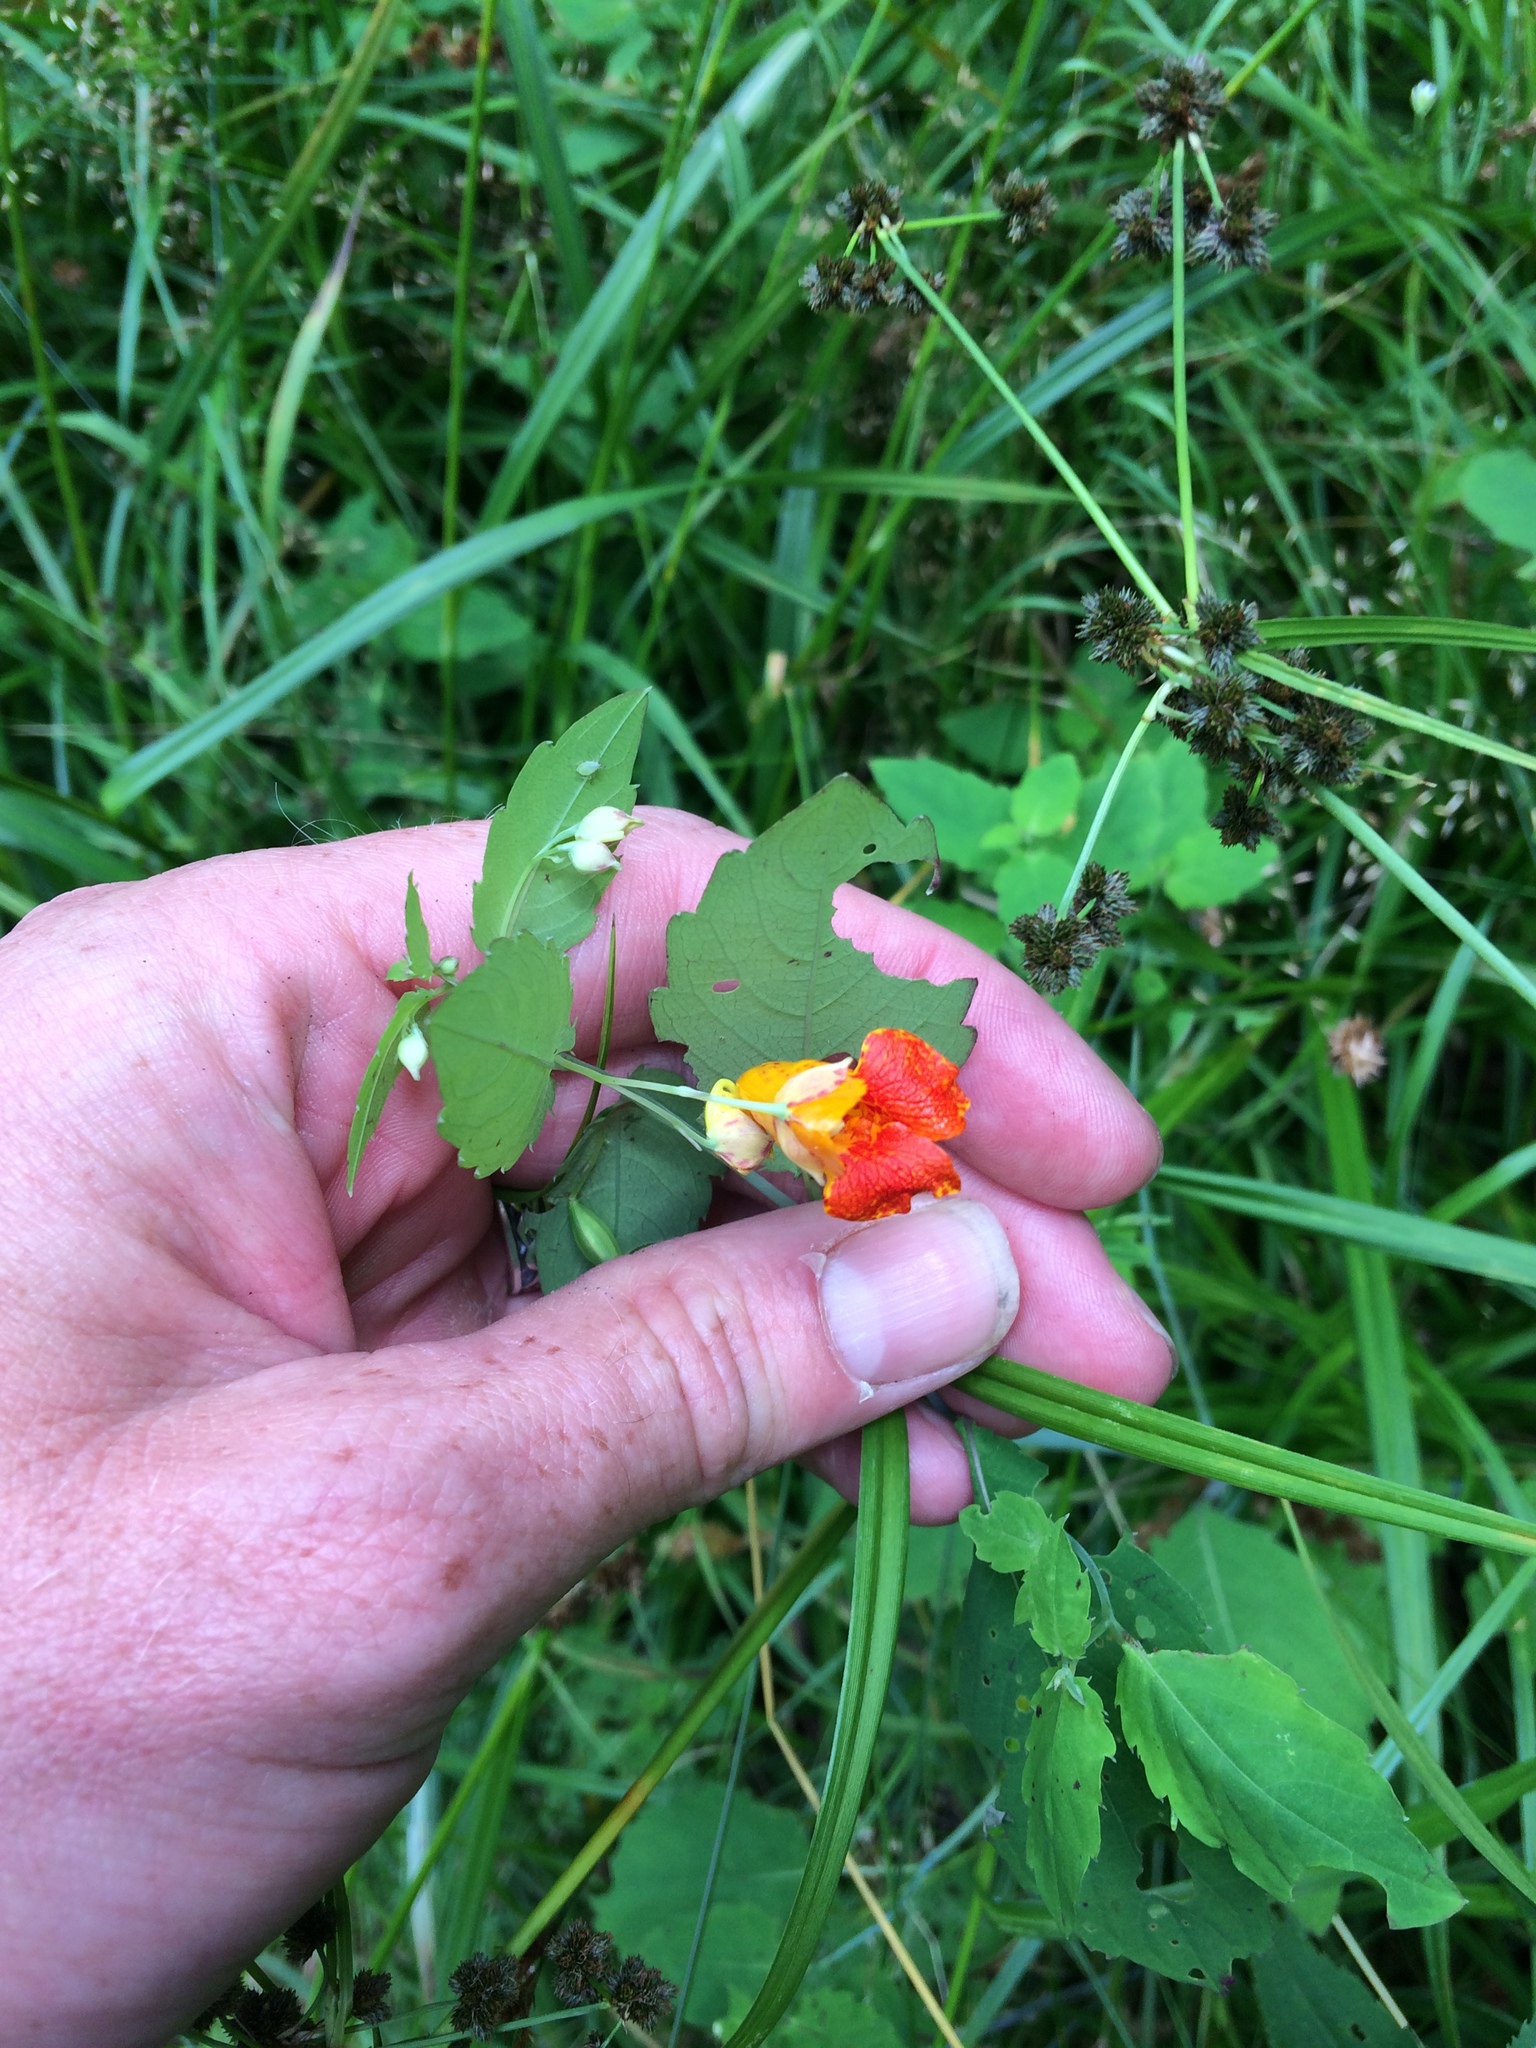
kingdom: Plantae
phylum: Tracheophyta
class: Magnoliopsida
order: Ericales
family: Balsaminaceae
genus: Impatiens
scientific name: Impatiens capensis
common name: Orange balsam
